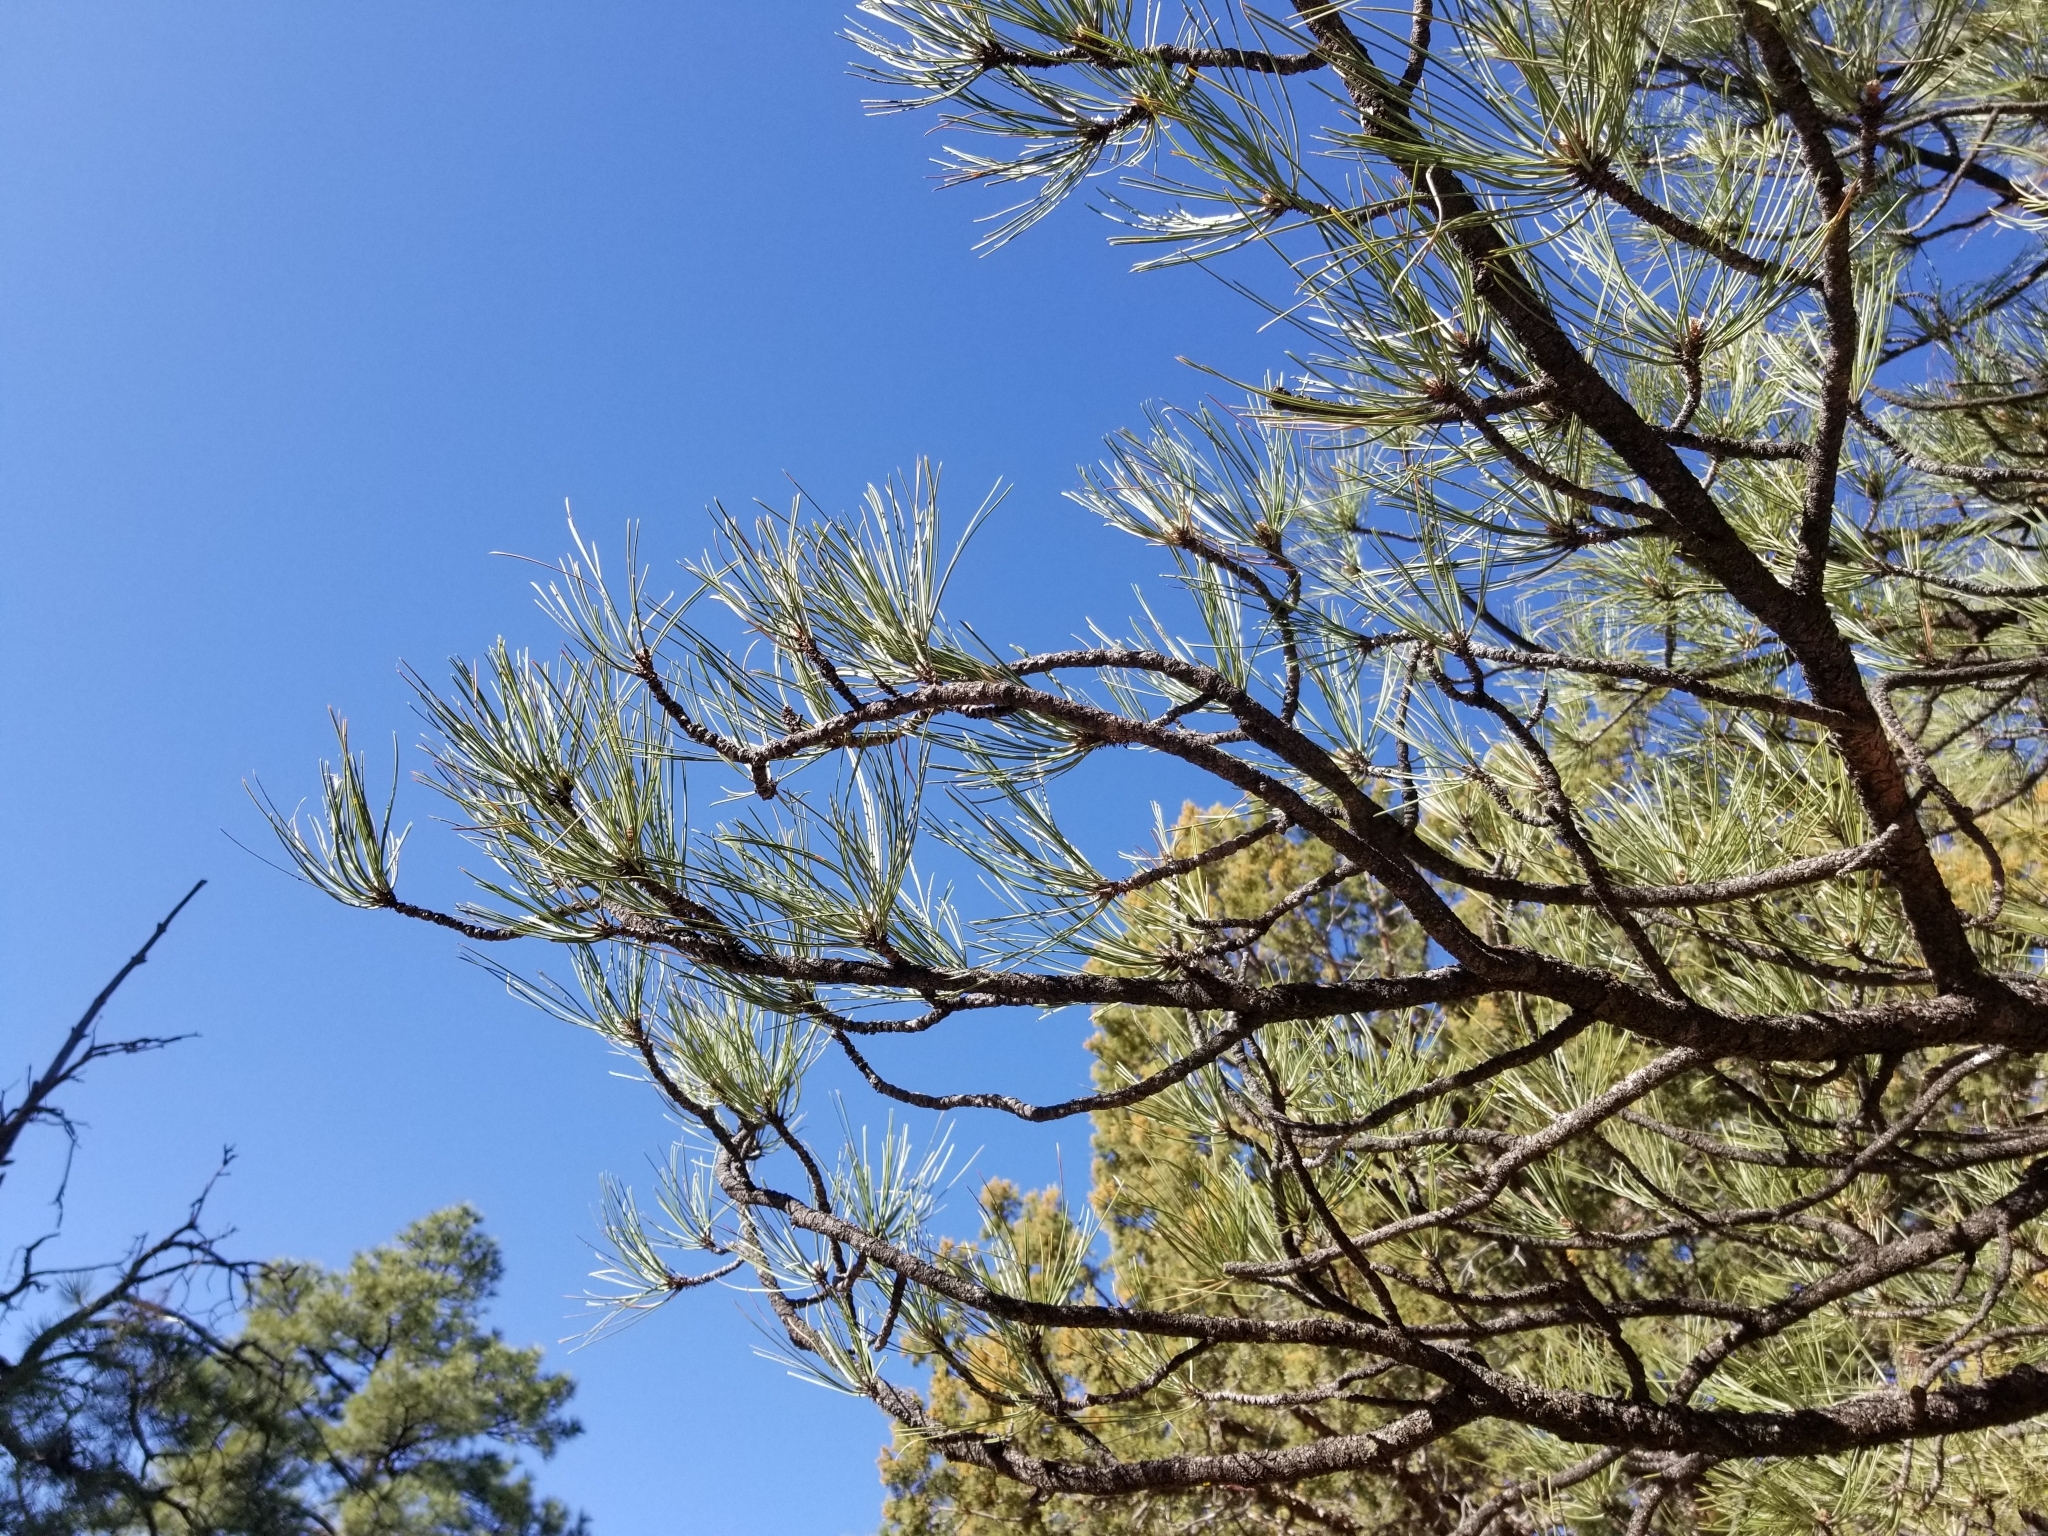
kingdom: Plantae
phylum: Tracheophyta
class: Pinopsida
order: Pinales
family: Pinaceae
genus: Pinus
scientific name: Pinus ponderosa
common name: Western yellow-pine
